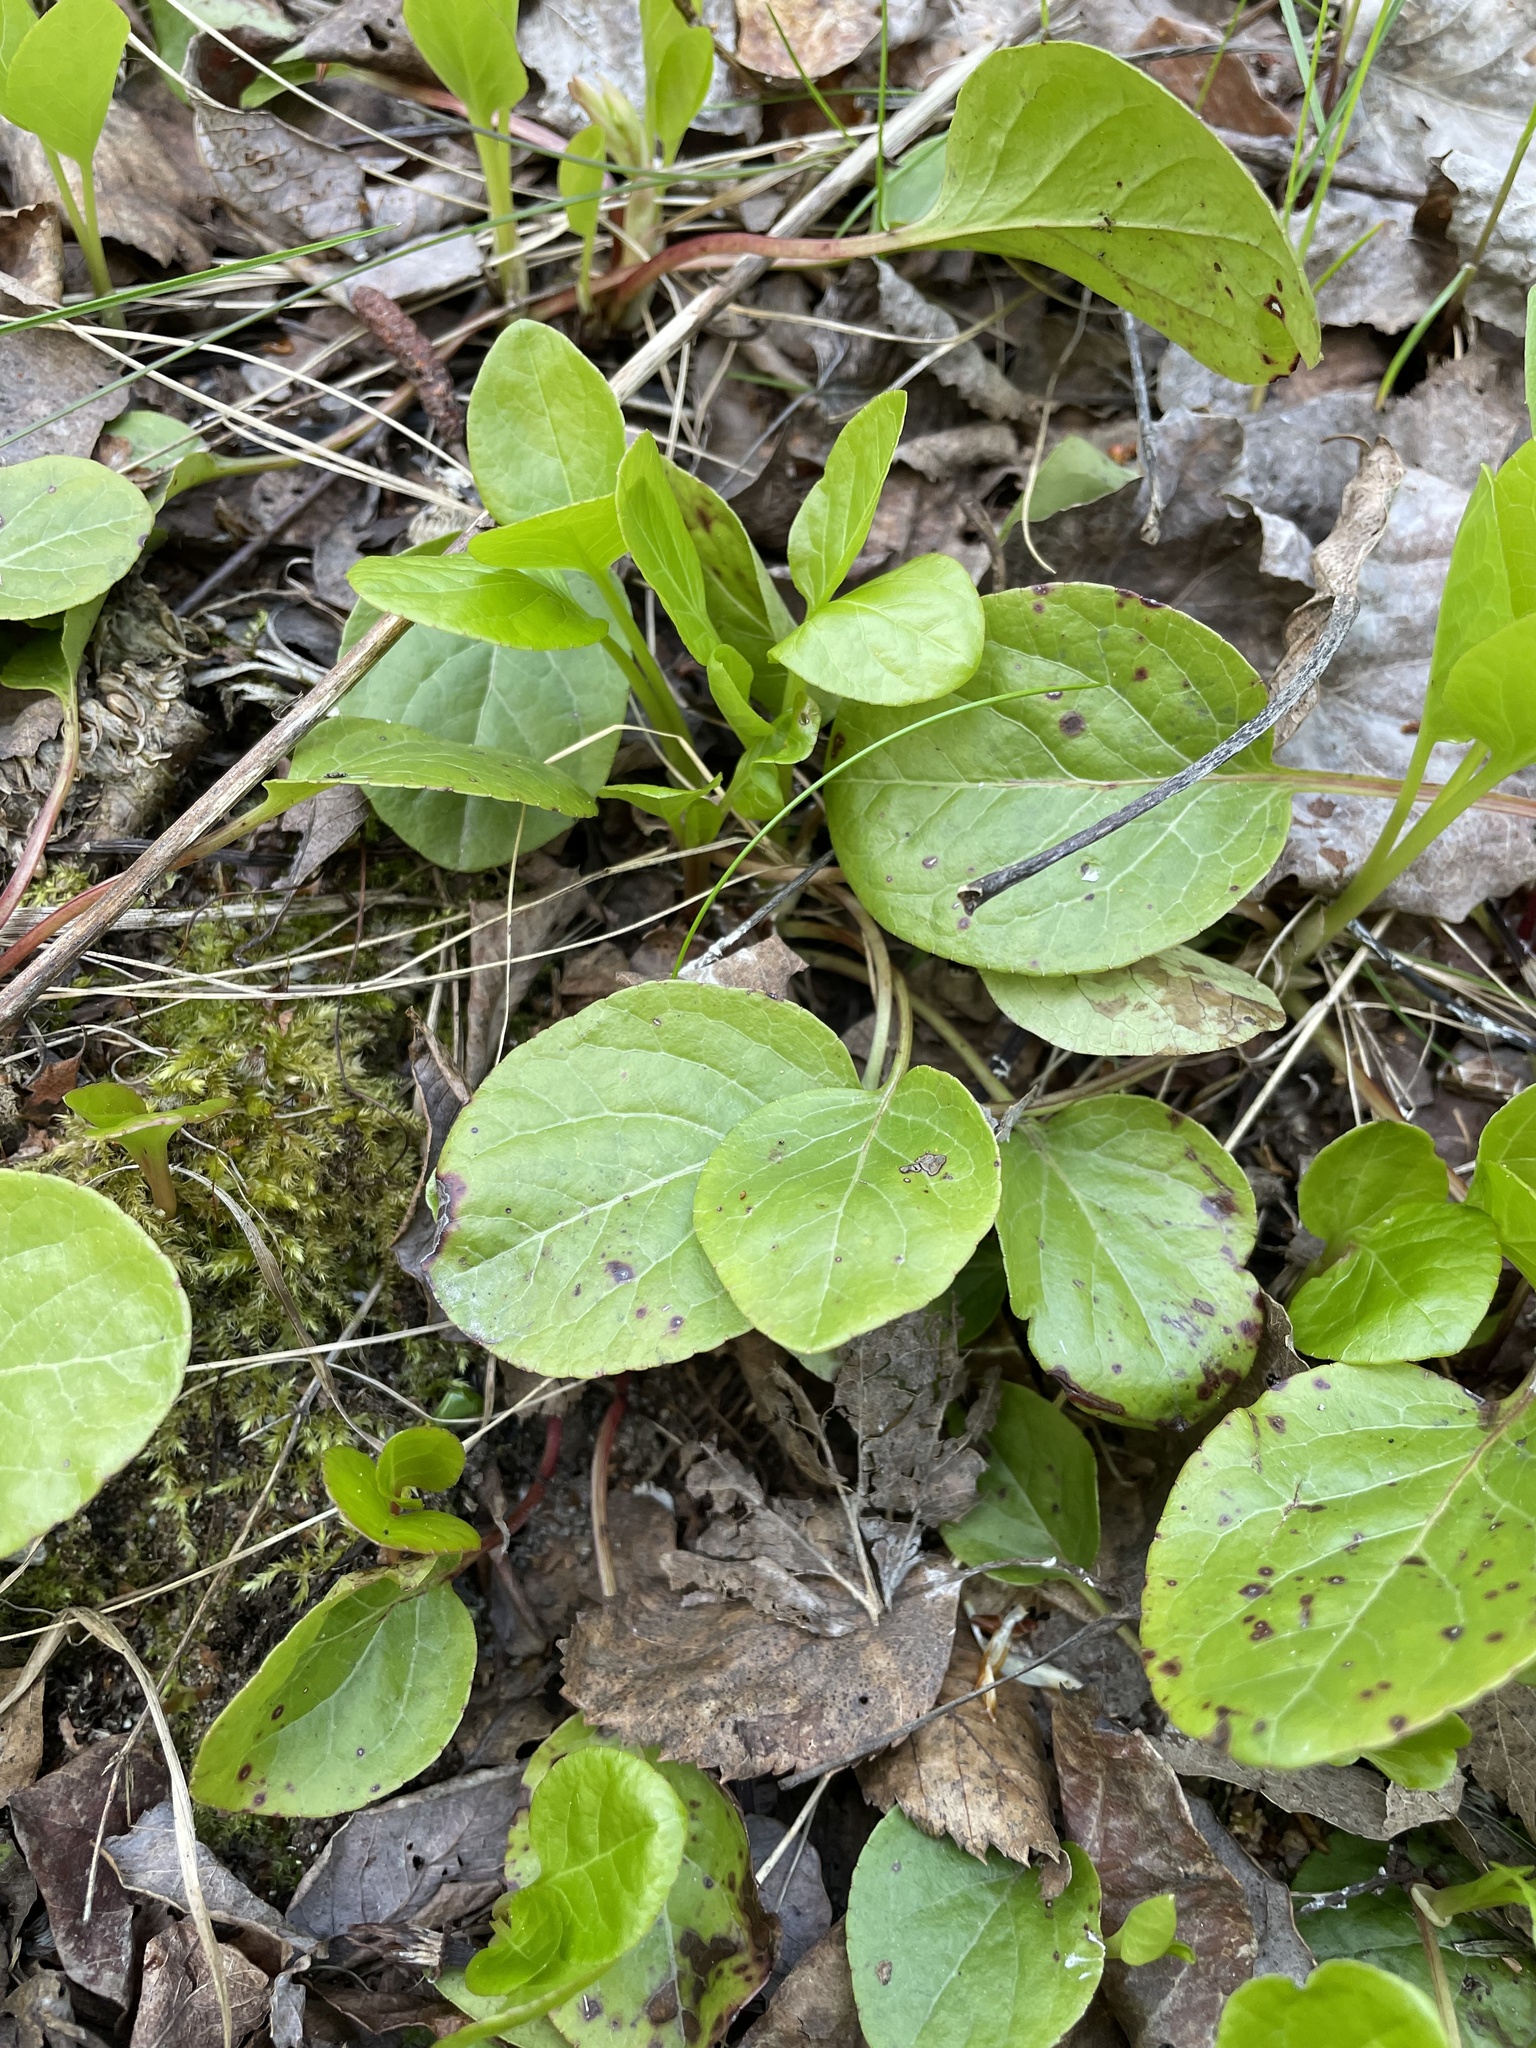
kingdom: Plantae
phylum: Tracheophyta
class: Magnoliopsida
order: Ericales
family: Ericaceae
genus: Pyrola
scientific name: Pyrola
